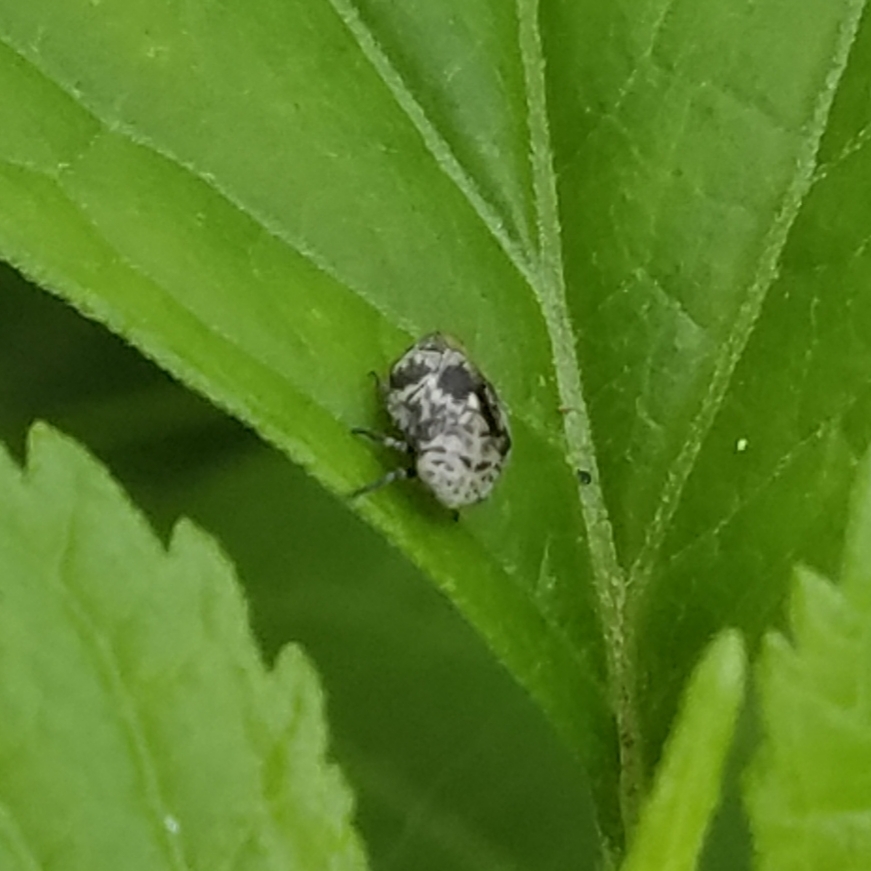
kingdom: Animalia
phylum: Arthropoda
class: Insecta
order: Hemiptera
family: Clastopteridae
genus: Clastoptera
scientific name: Clastoptera laevigata
